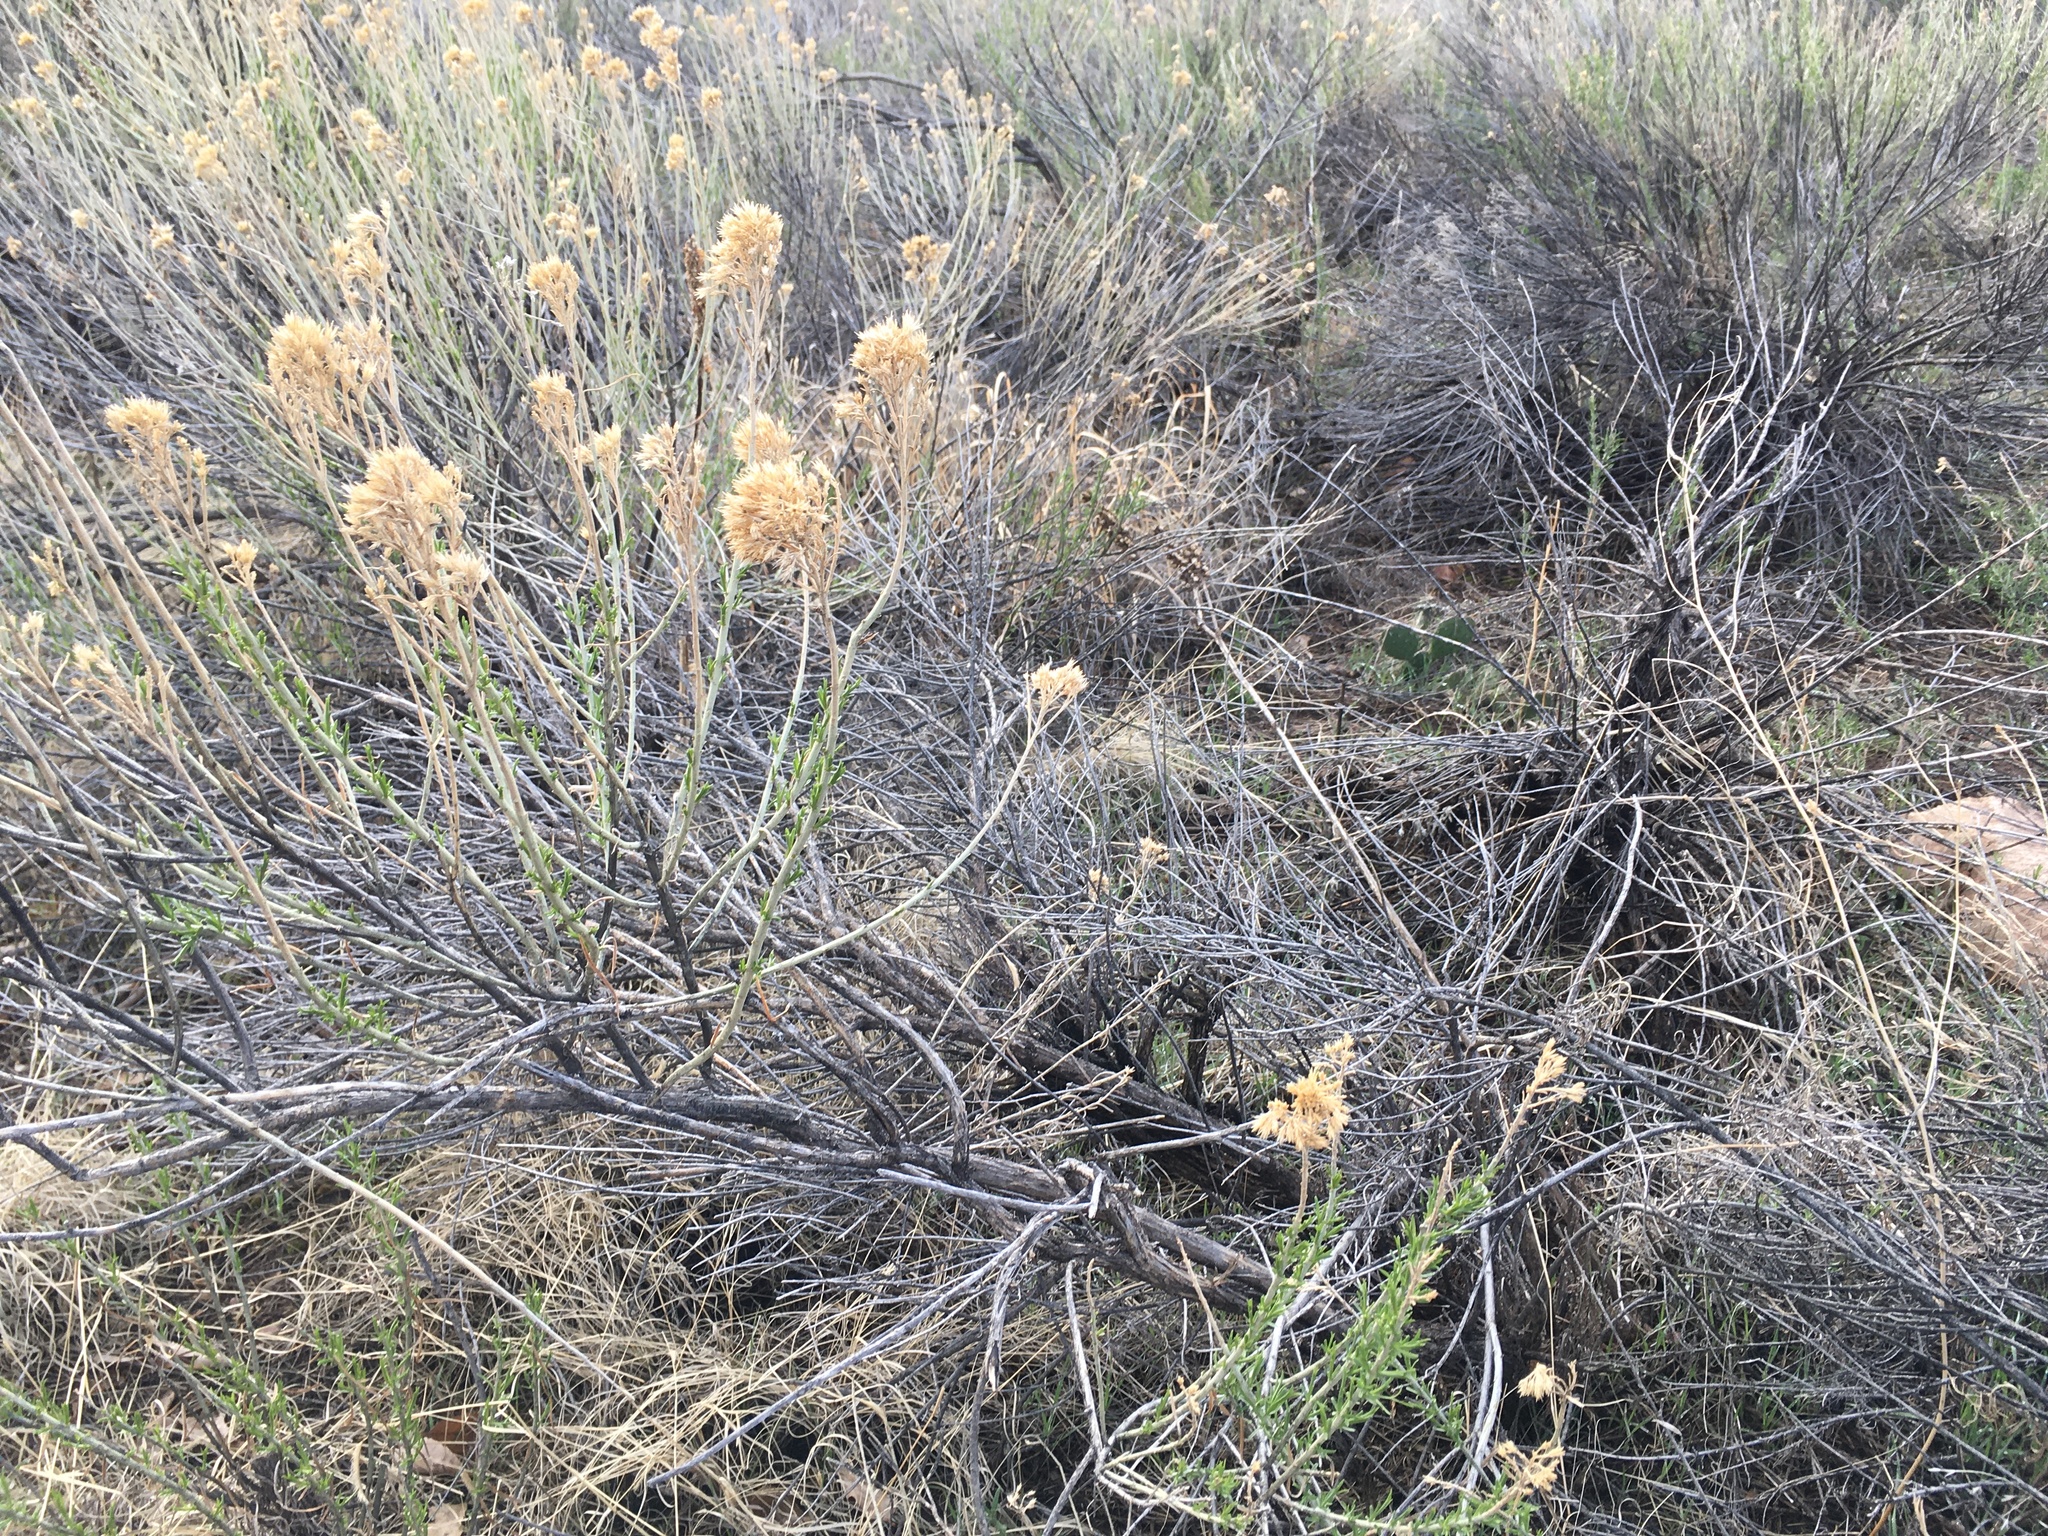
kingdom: Plantae
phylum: Tracheophyta
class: Magnoliopsida
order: Asterales
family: Asteraceae
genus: Ericameria
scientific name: Ericameria nauseosa
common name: Rubber rabbitbrush
